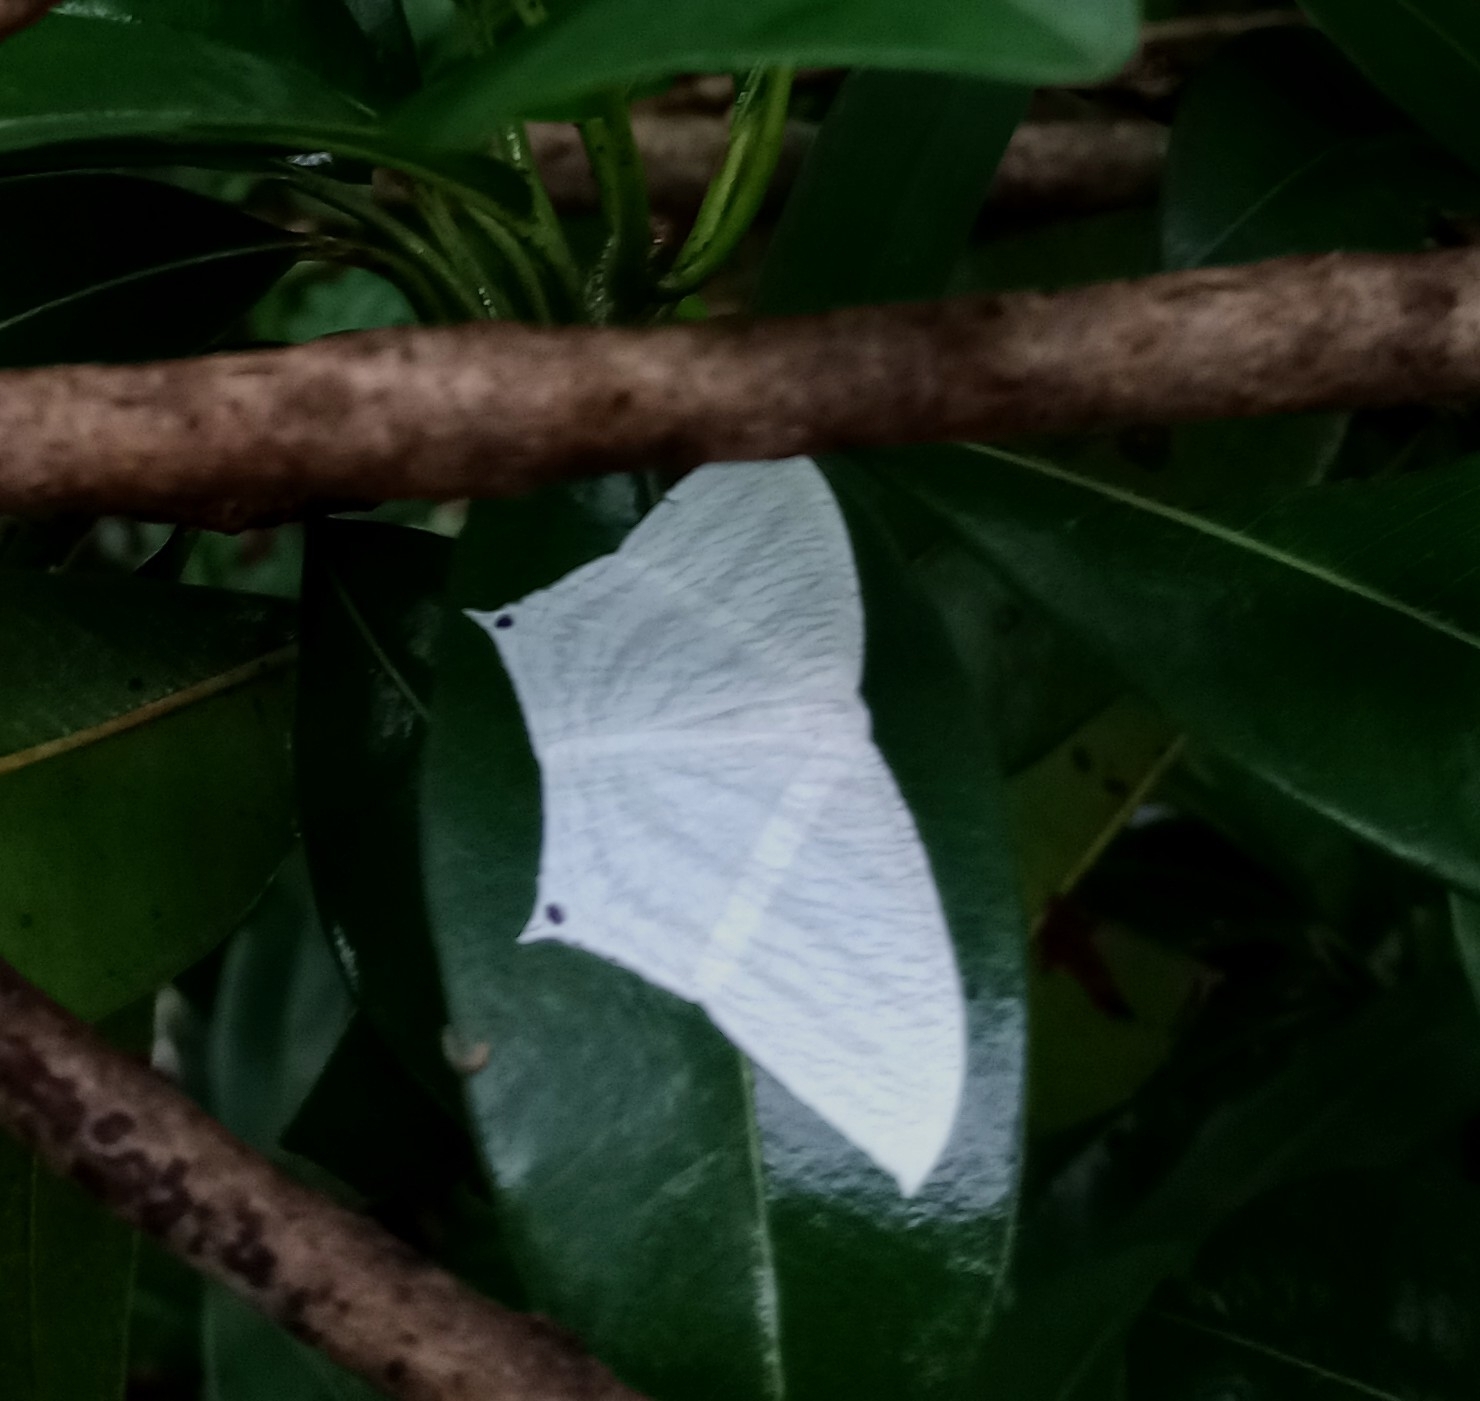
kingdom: Animalia
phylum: Arthropoda
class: Insecta
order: Lepidoptera
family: Uraniidae
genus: Micronia
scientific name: Micronia aculeata
